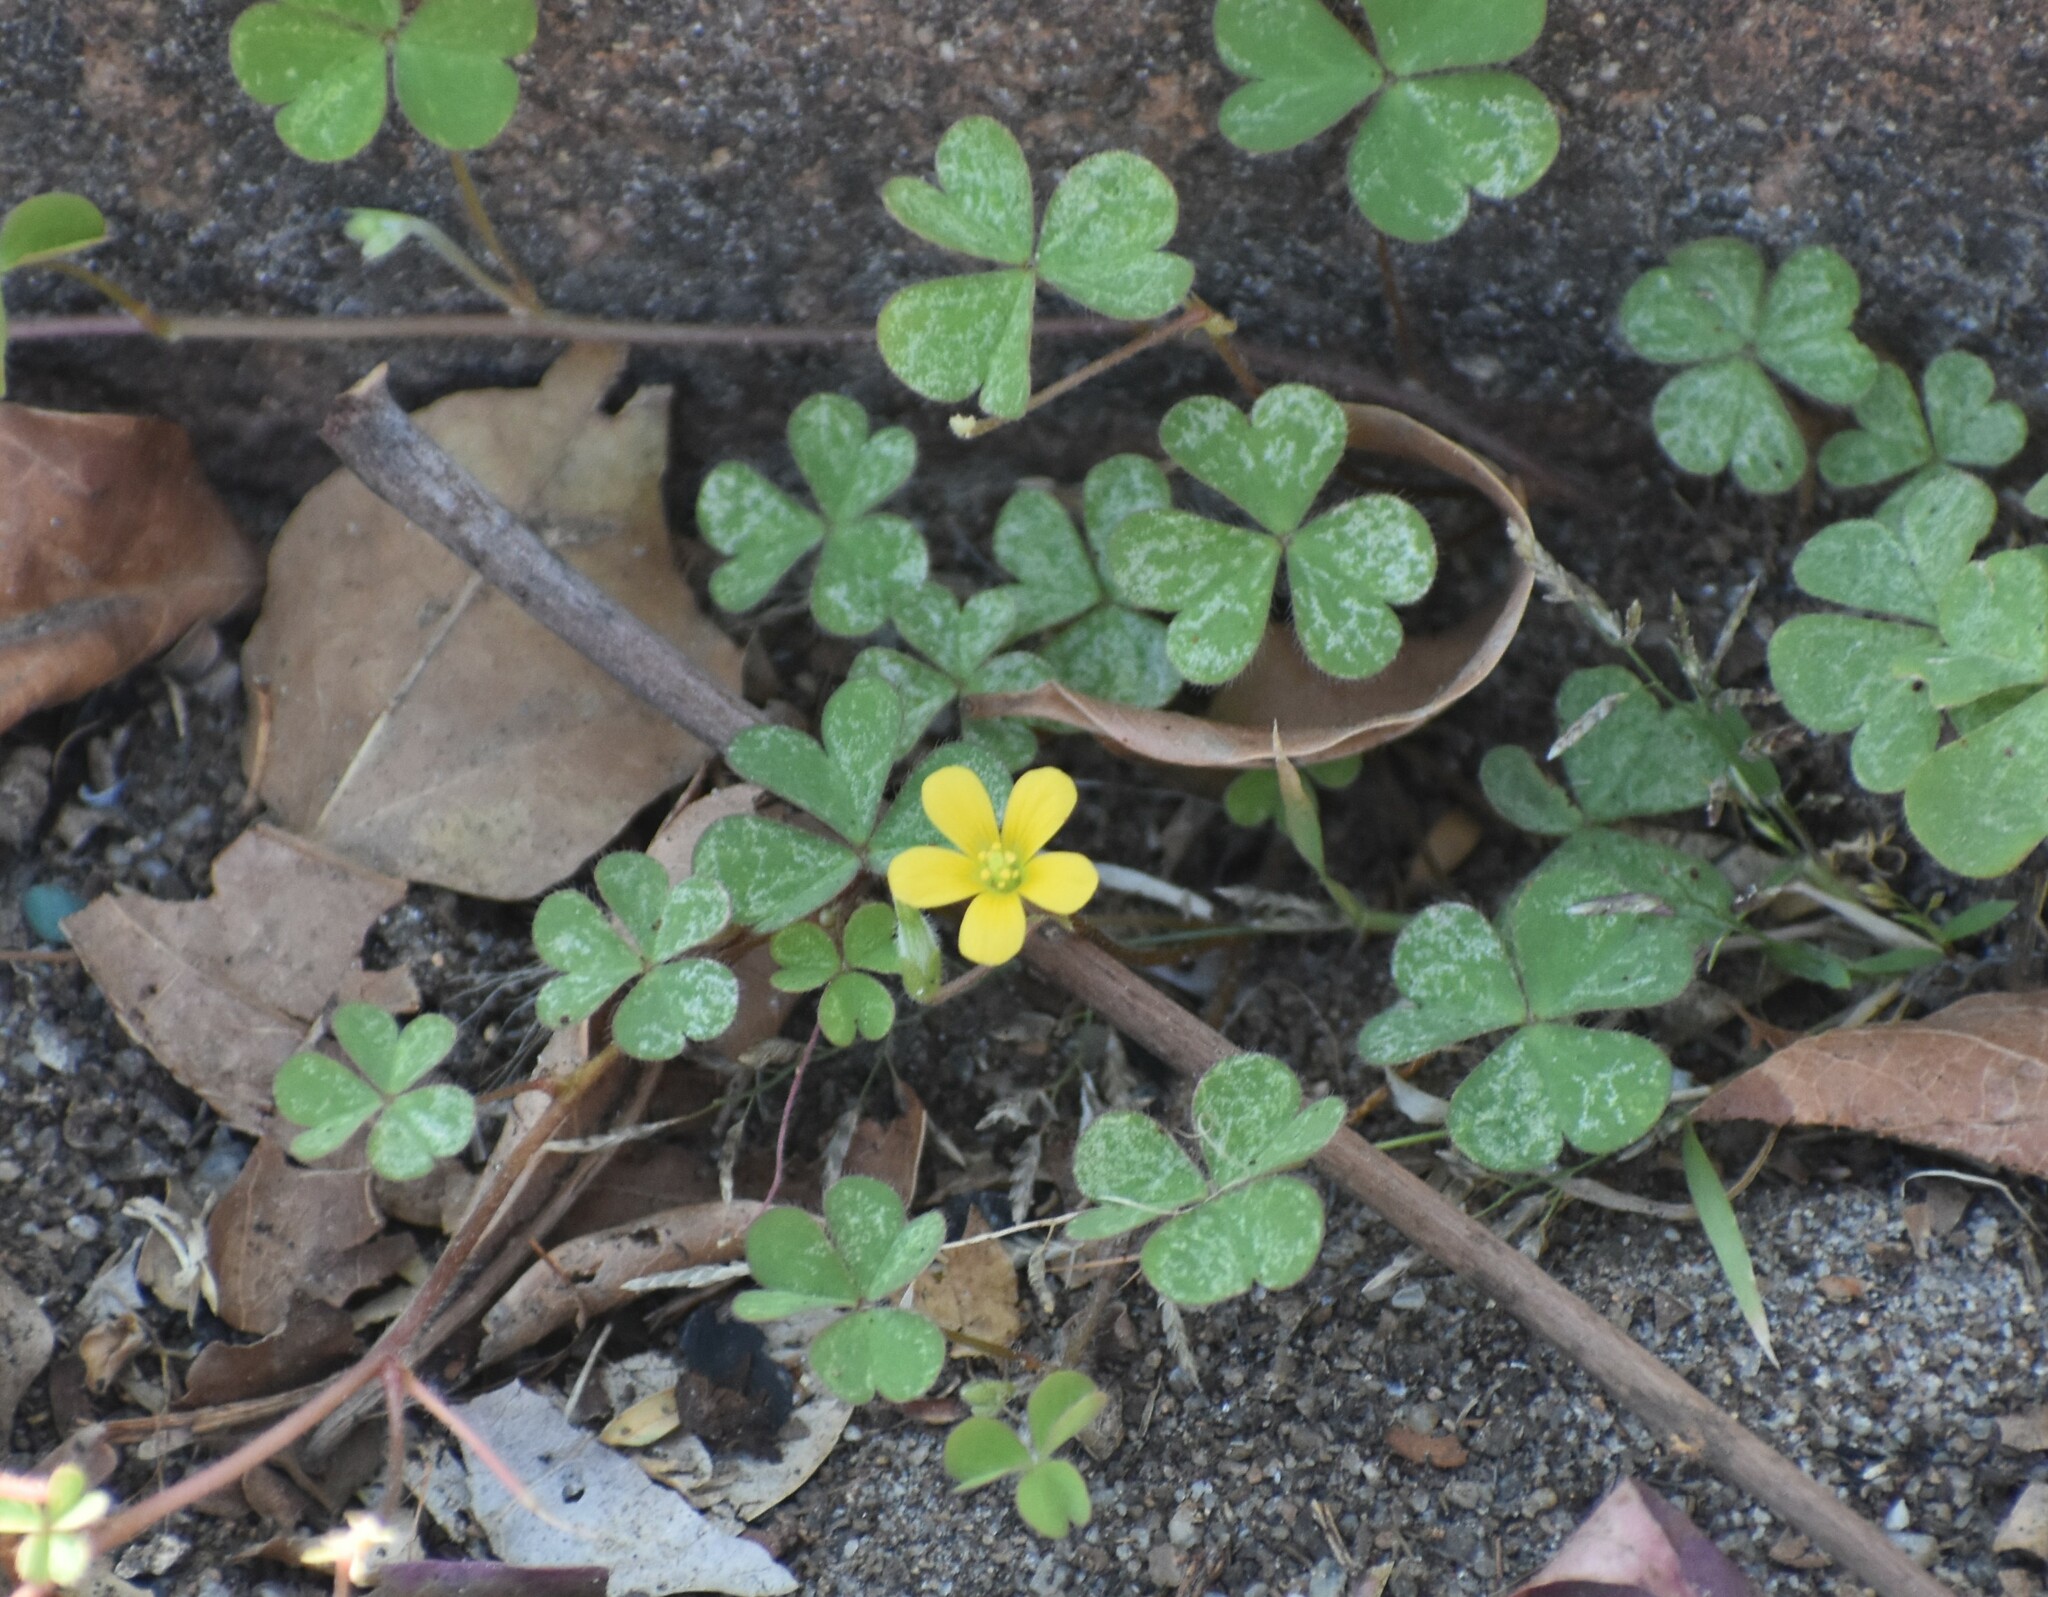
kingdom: Plantae
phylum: Tracheophyta
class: Magnoliopsida
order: Oxalidales
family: Oxalidaceae
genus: Oxalis
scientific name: Oxalis corniculata
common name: Procumbent yellow-sorrel
